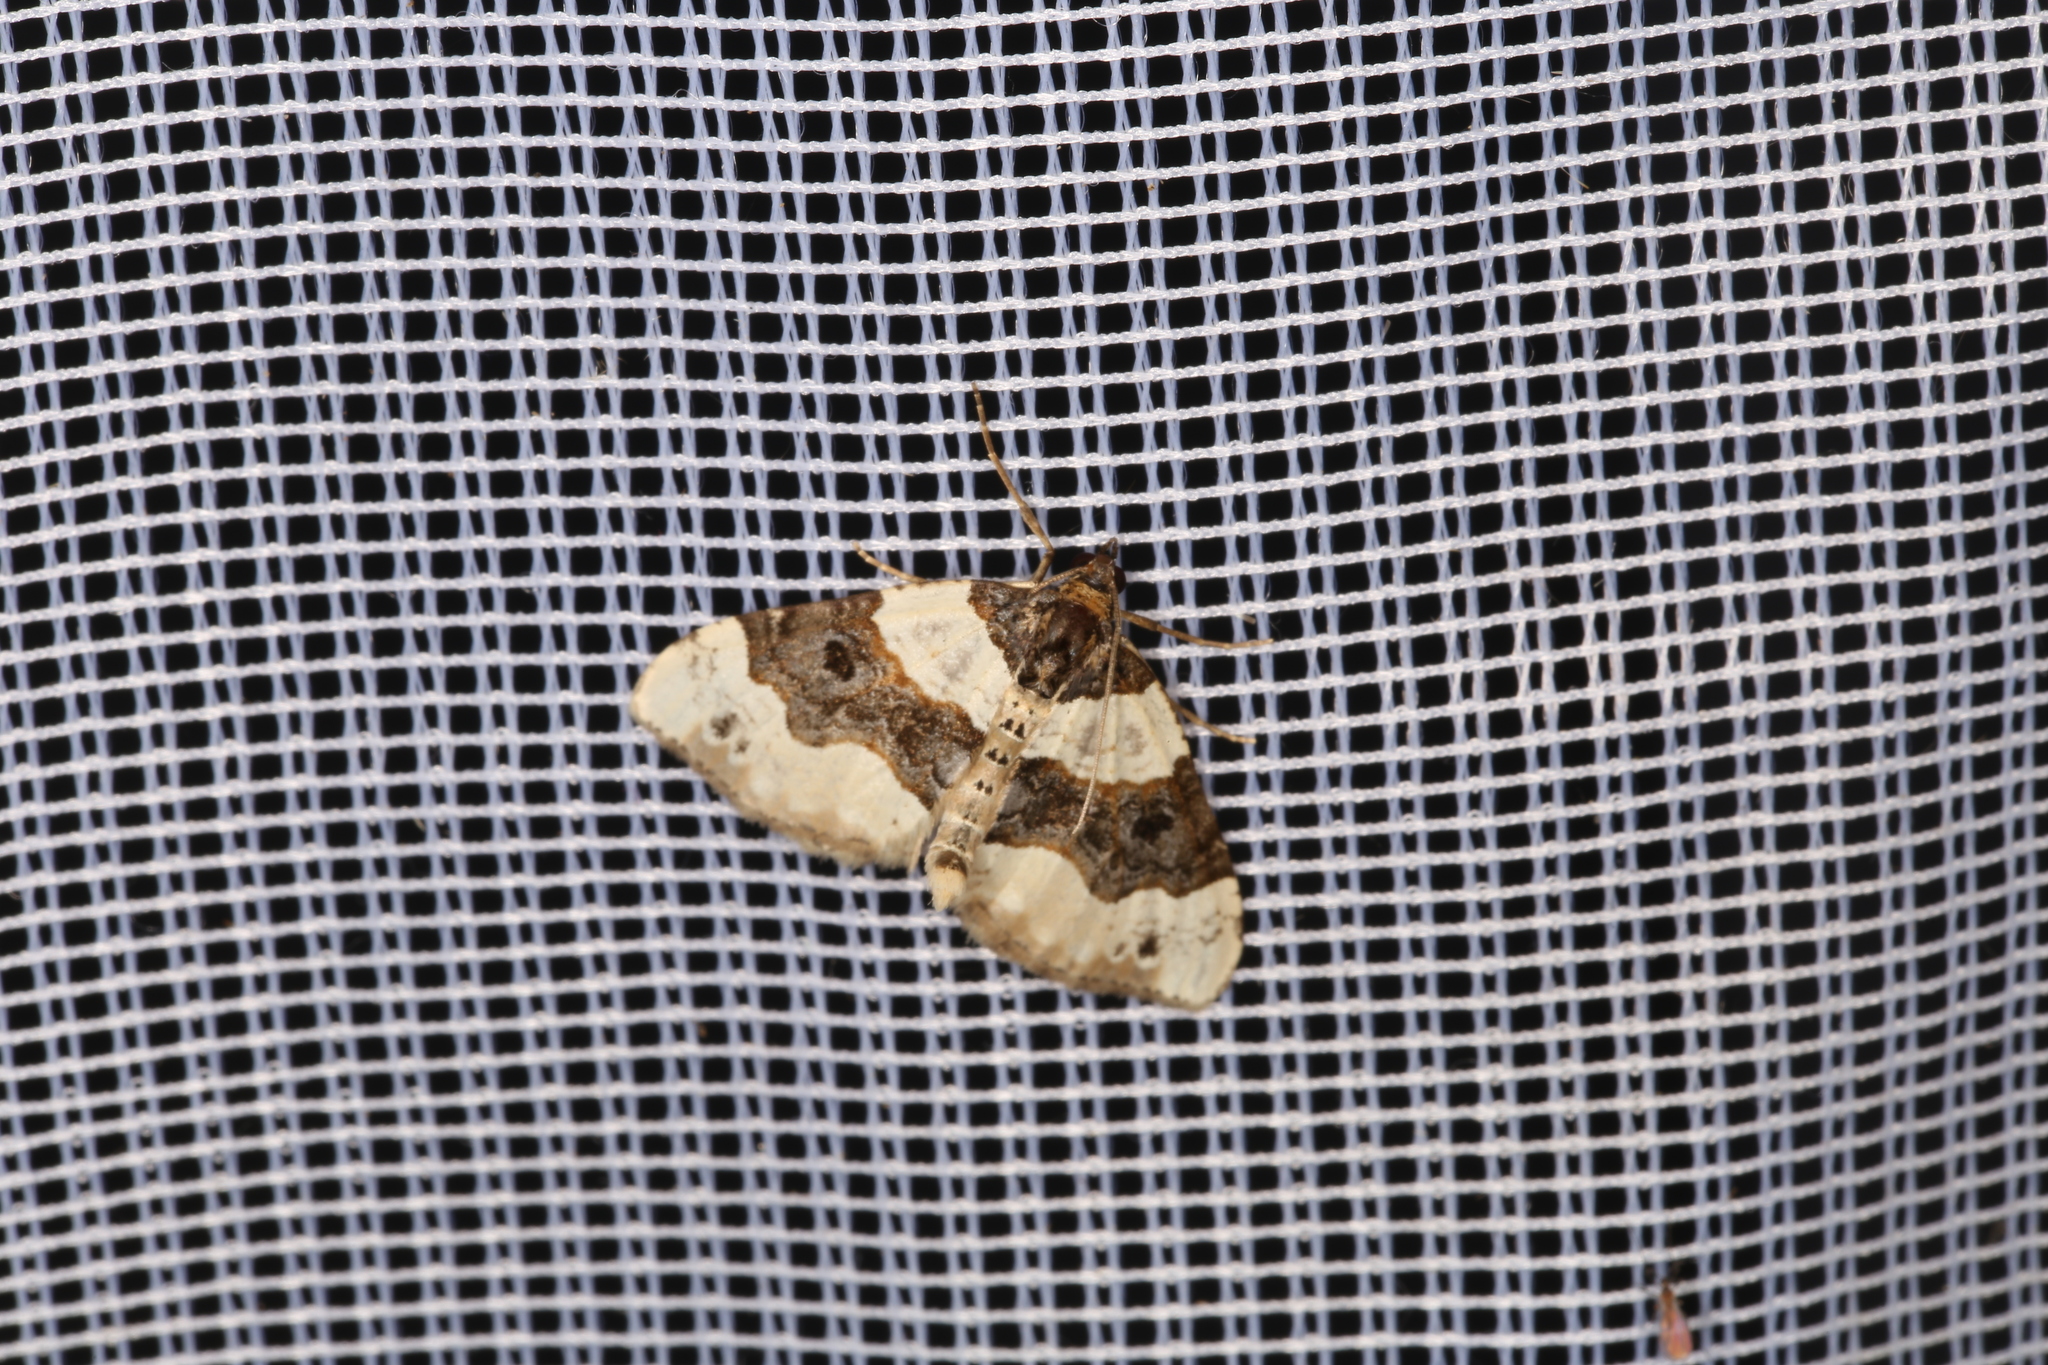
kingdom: Animalia
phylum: Arthropoda
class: Insecta
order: Lepidoptera
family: Geometridae
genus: Cosmorhoe
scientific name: Cosmorhoe ocellata
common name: Purple bar
